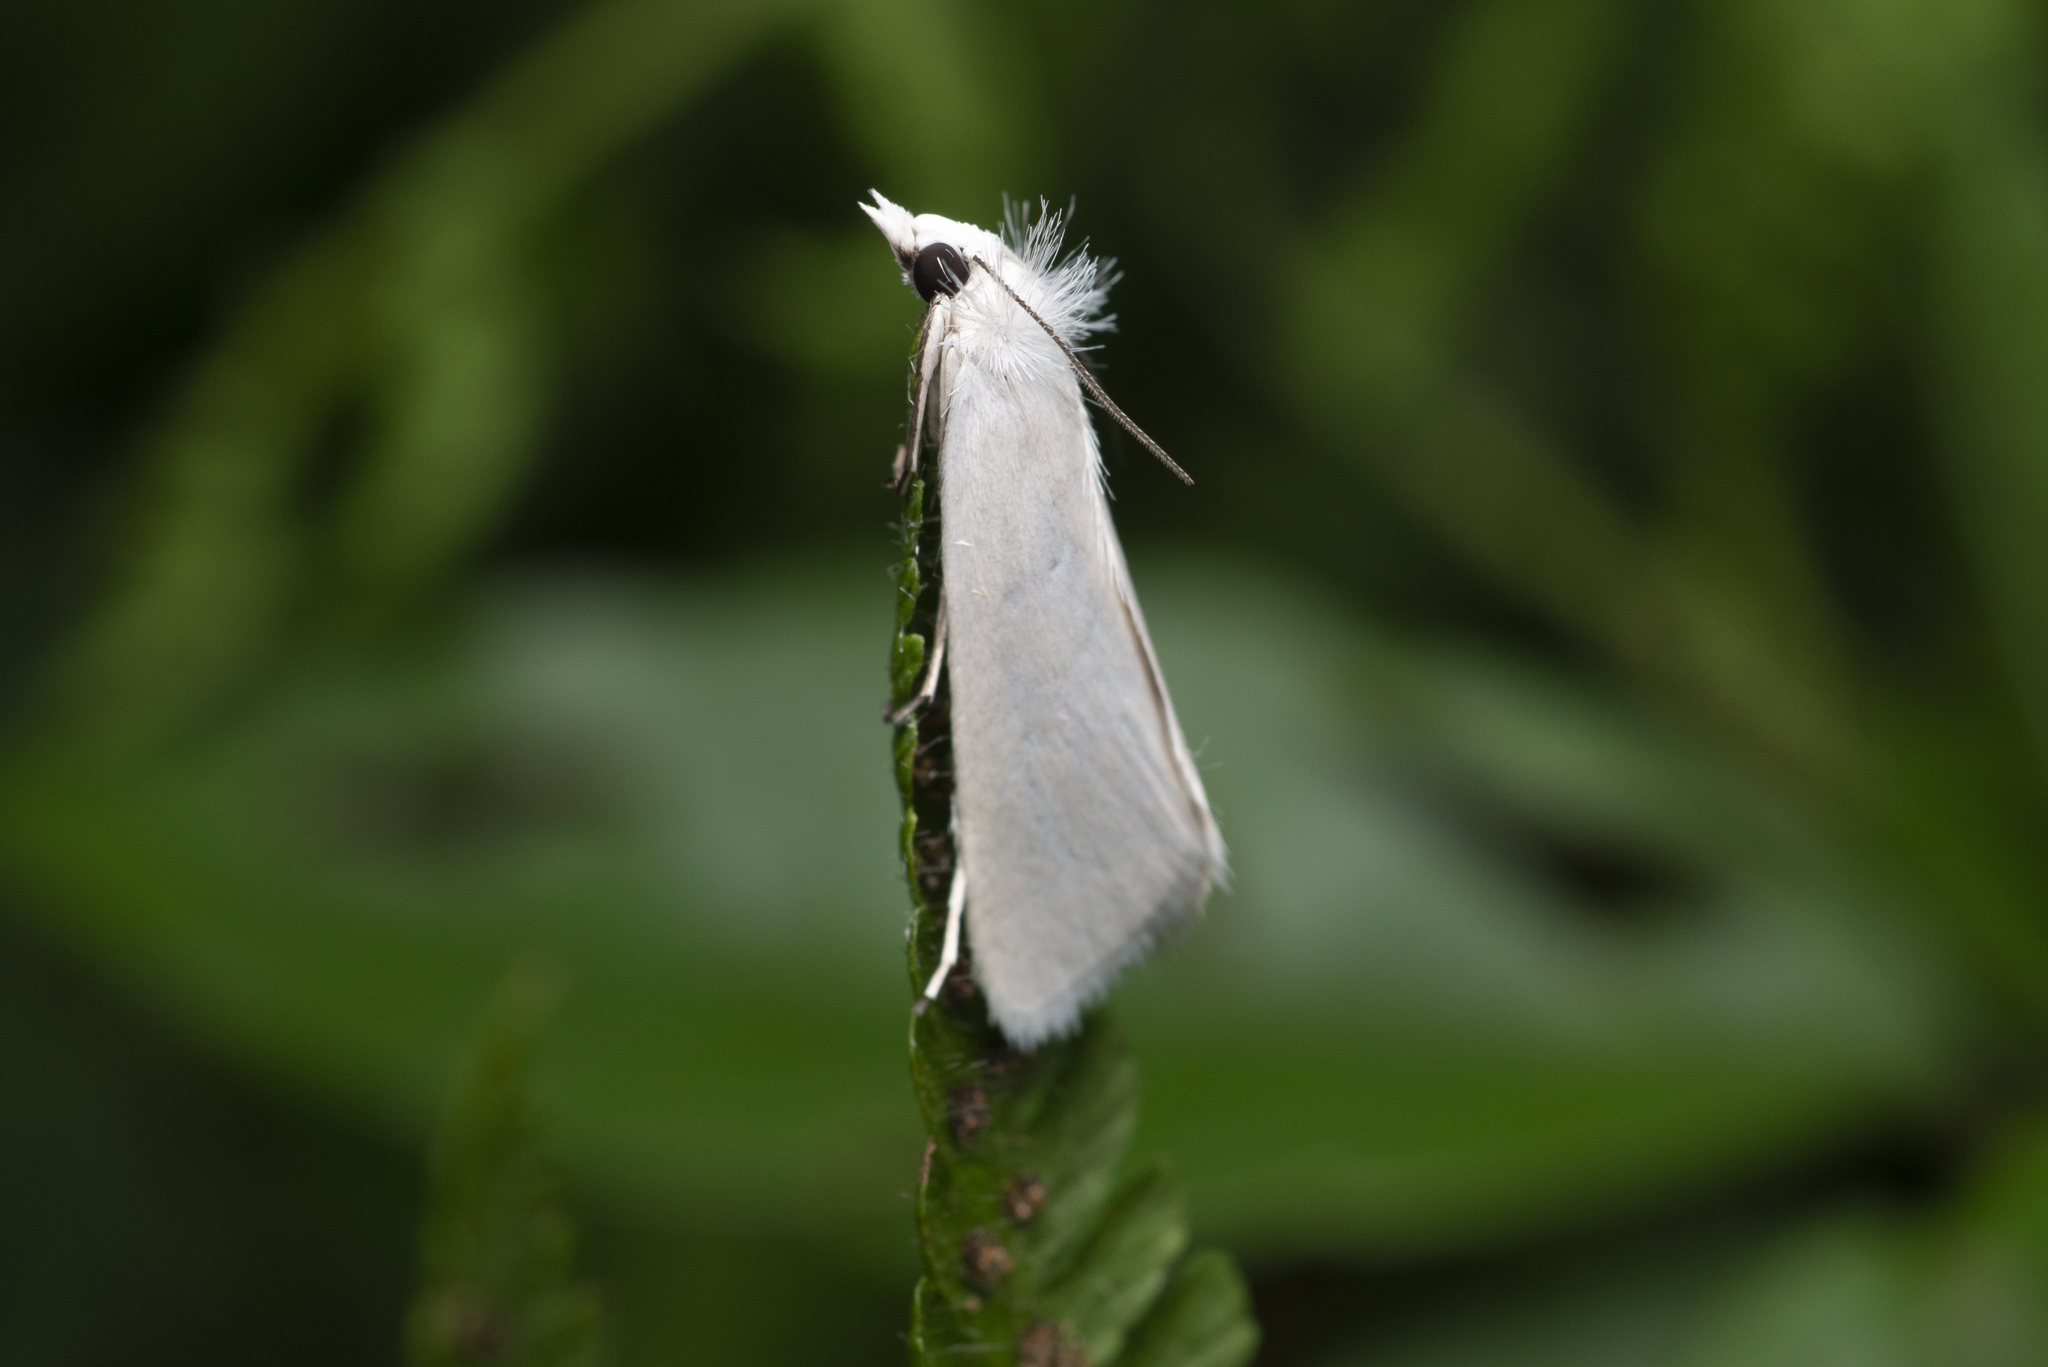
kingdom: Animalia
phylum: Arthropoda
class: Insecta
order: Lepidoptera
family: Crambidae
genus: Scirpophaga
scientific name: Scirpophaga praelata
